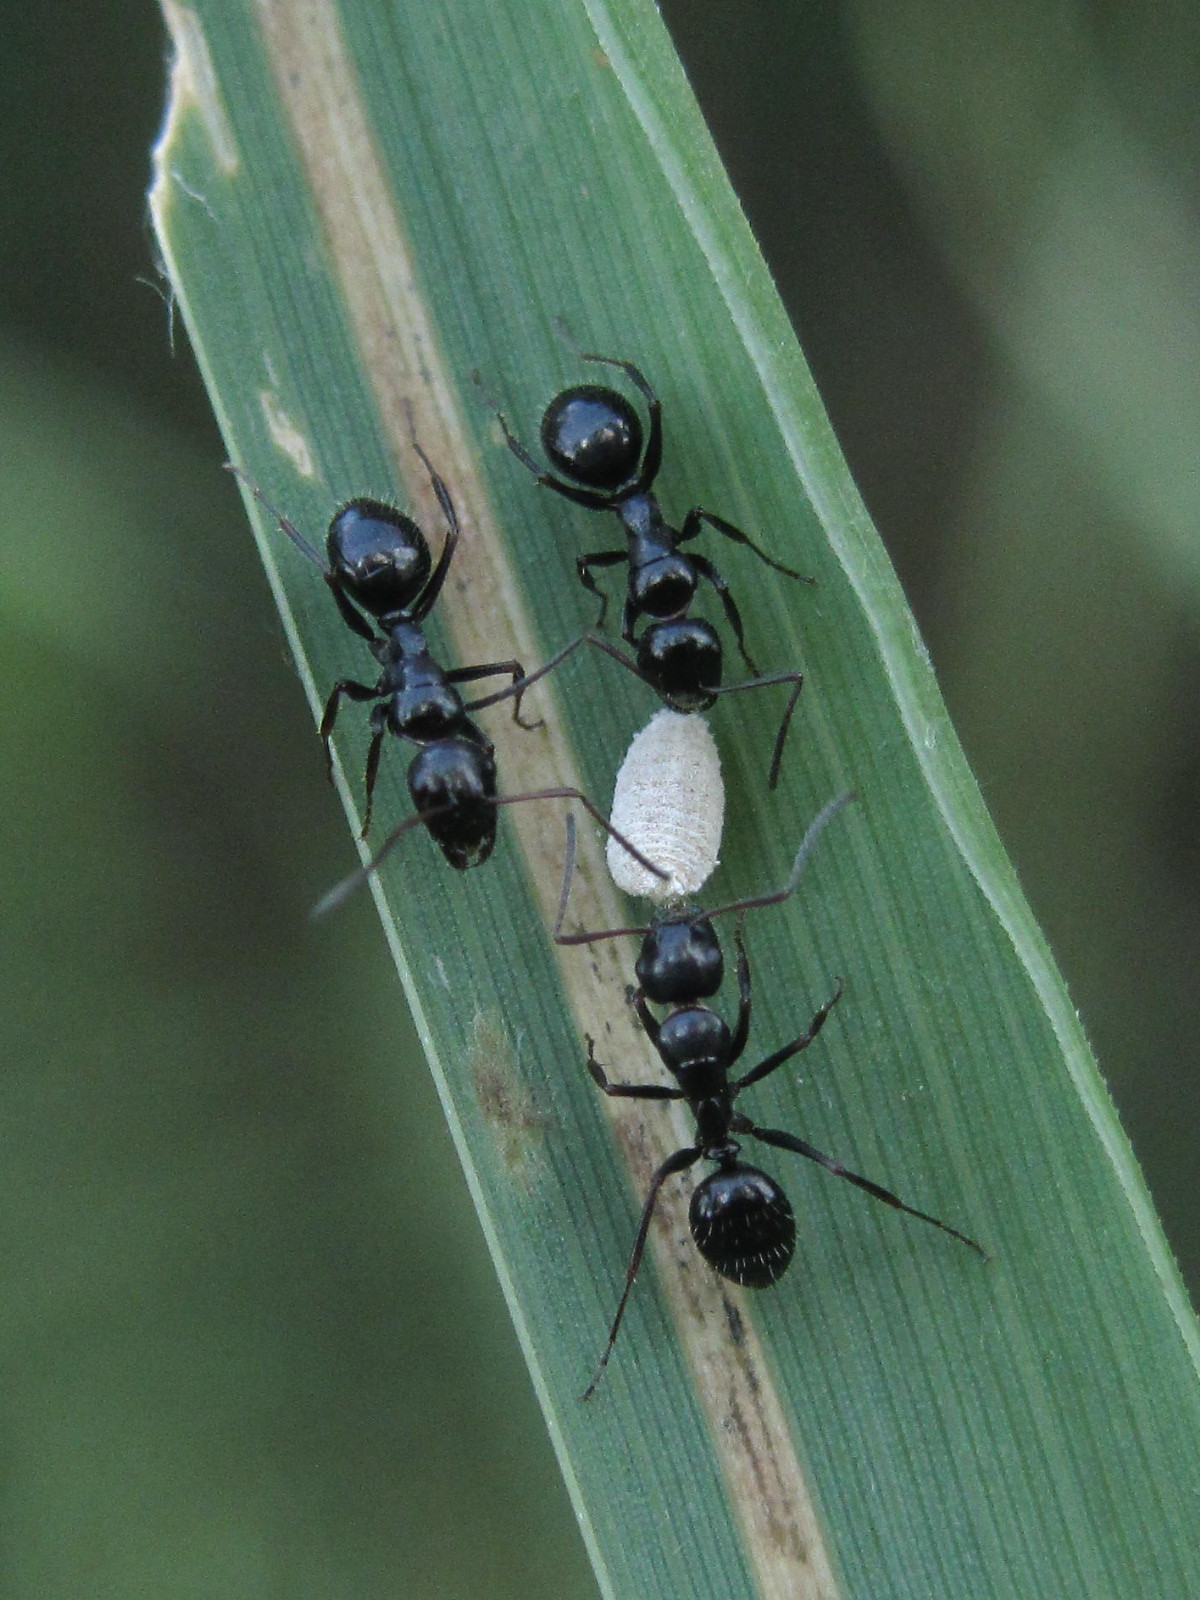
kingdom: Animalia
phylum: Arthropoda
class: Insecta
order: Hymenoptera
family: Formicidae
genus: Camponotus
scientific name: Camponotus piceus
